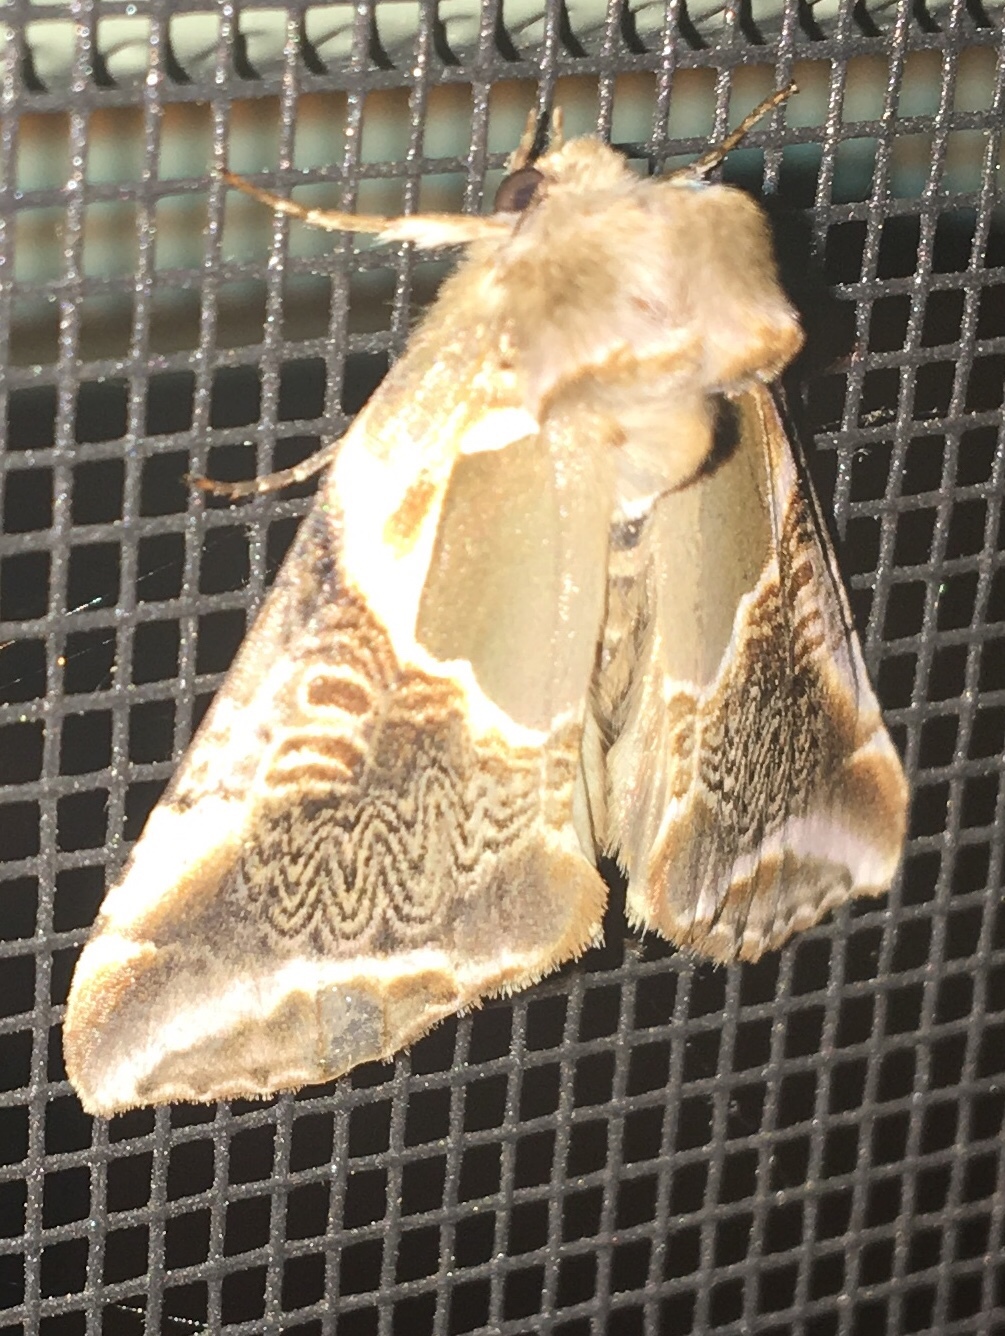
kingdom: Animalia
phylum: Arthropoda
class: Insecta
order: Lepidoptera
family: Drepanidae
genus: Habrosyne
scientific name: Habrosyne scripta
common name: Lettered habrosyne moth
